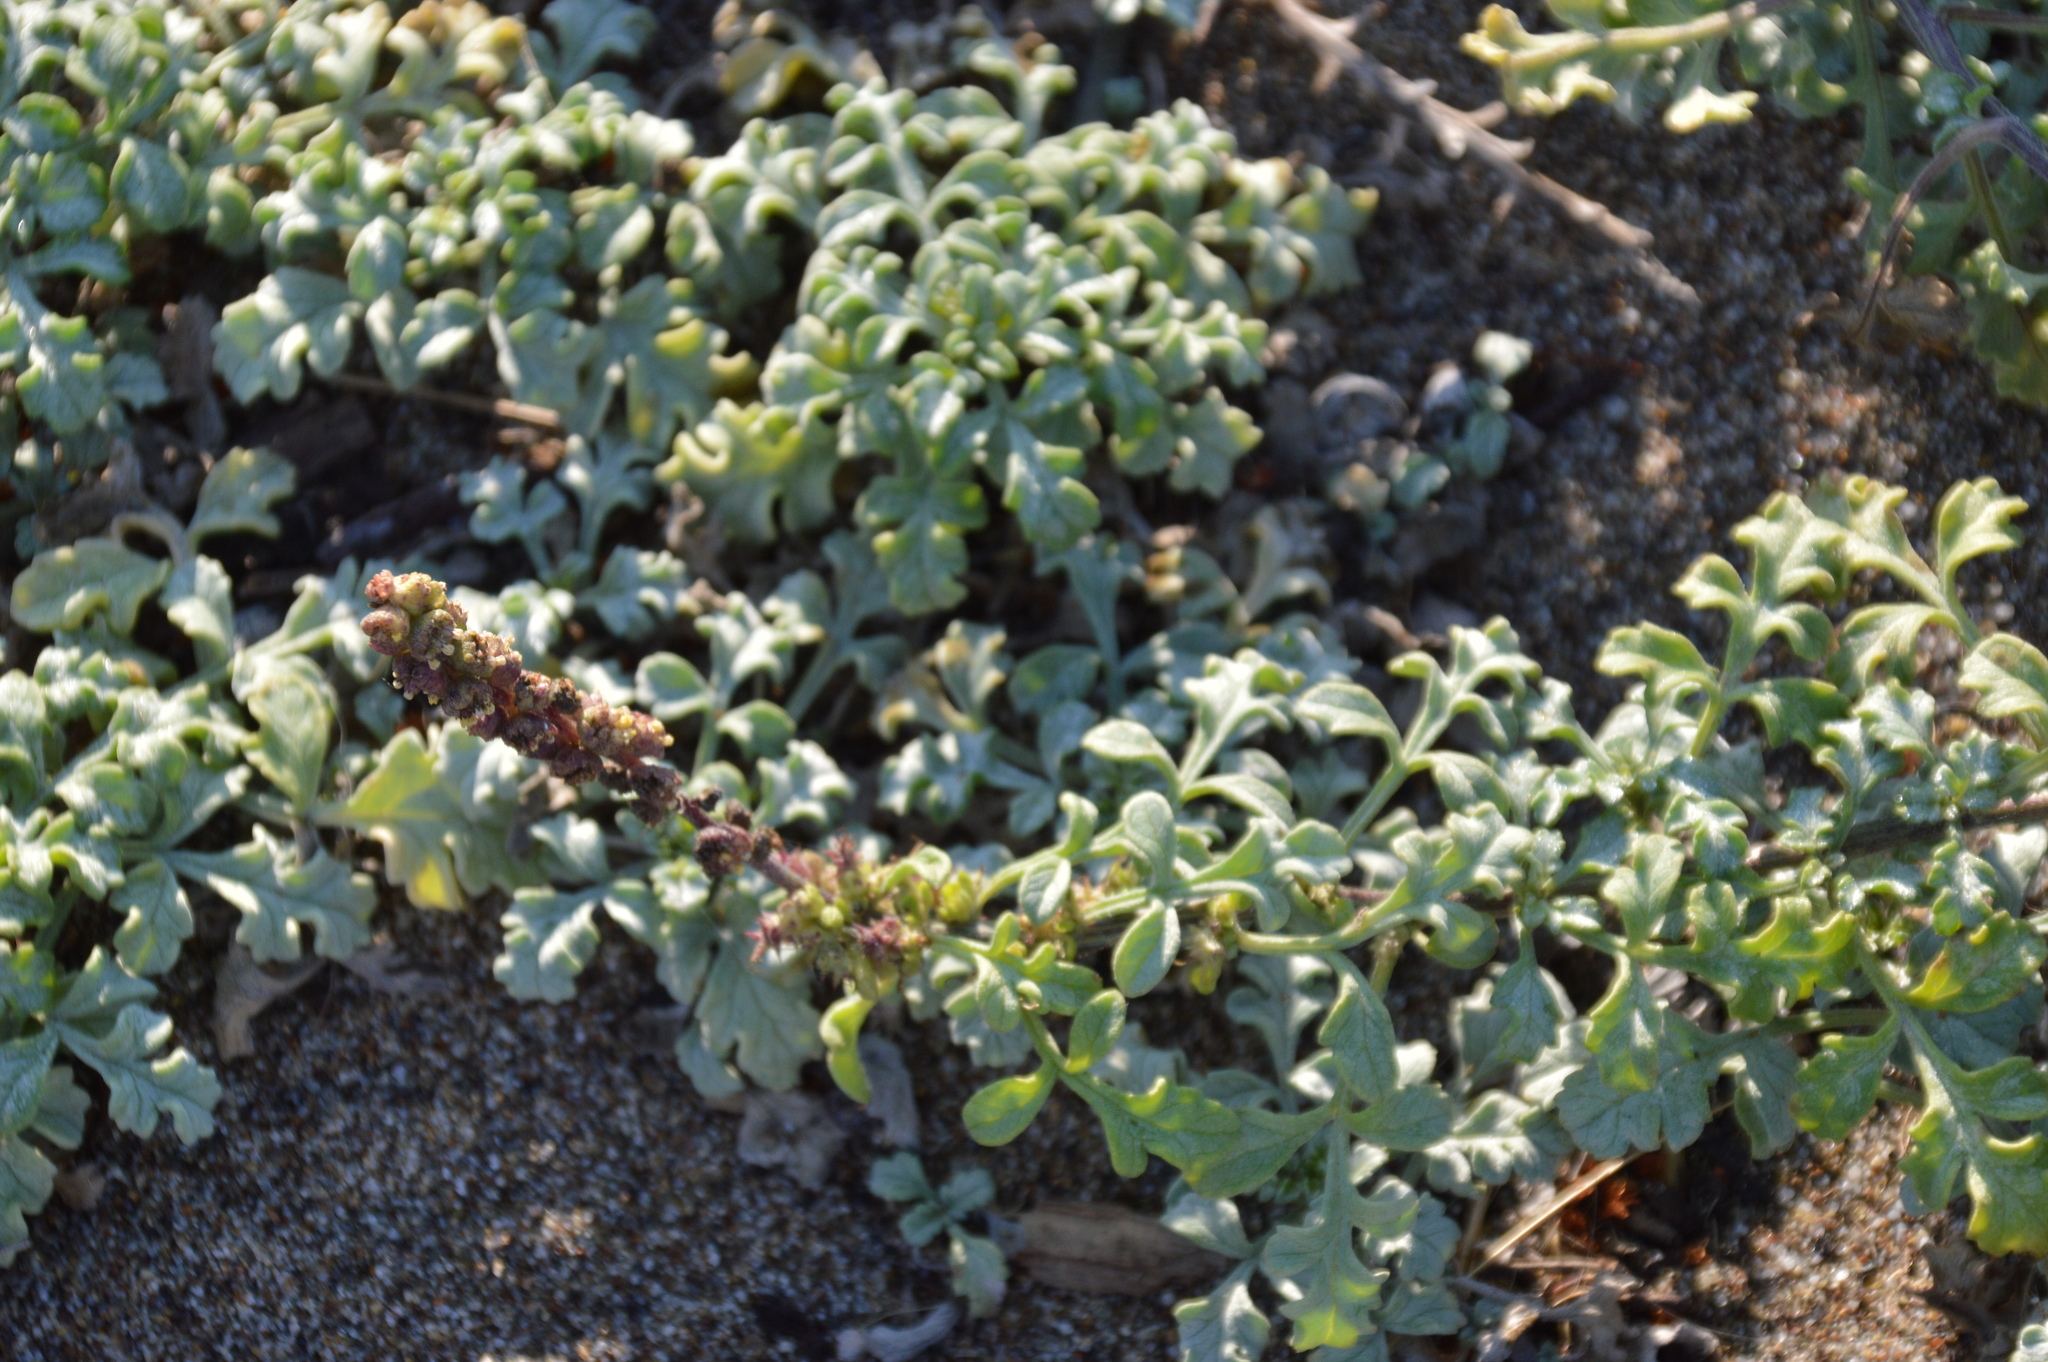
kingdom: Plantae
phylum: Tracheophyta
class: Magnoliopsida
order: Asterales
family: Asteraceae
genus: Ambrosia
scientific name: Ambrosia chamissonis
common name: Beachbur
